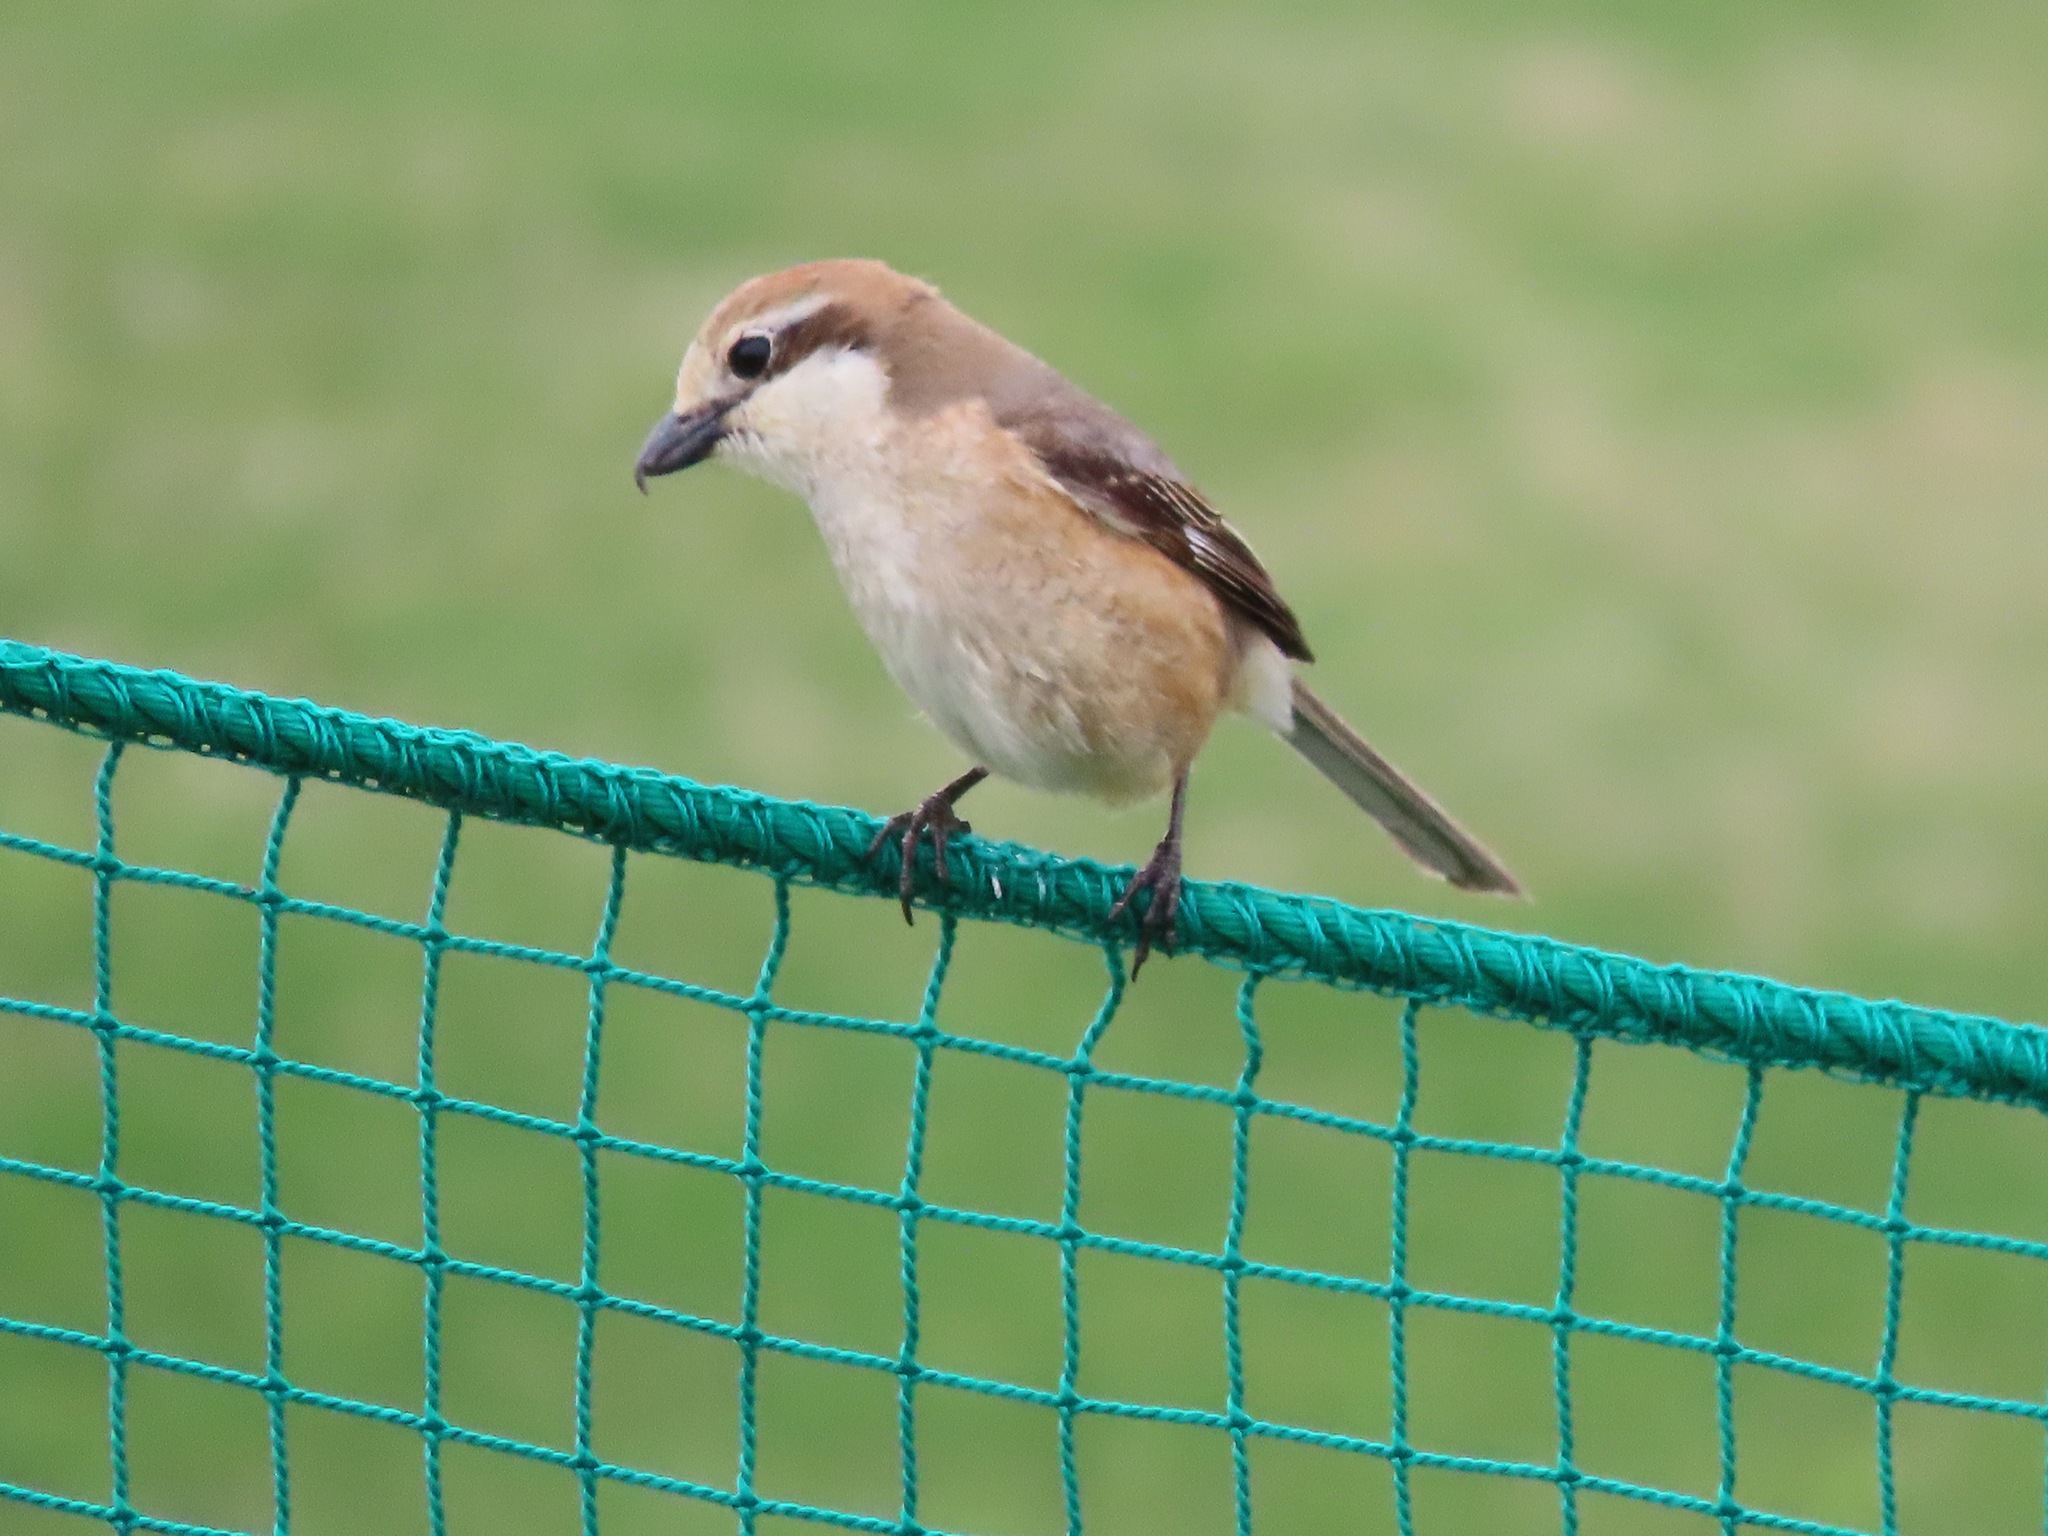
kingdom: Animalia
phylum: Chordata
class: Aves
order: Passeriformes
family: Laniidae
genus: Lanius
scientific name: Lanius bucephalus
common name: Bull-headed shrike
